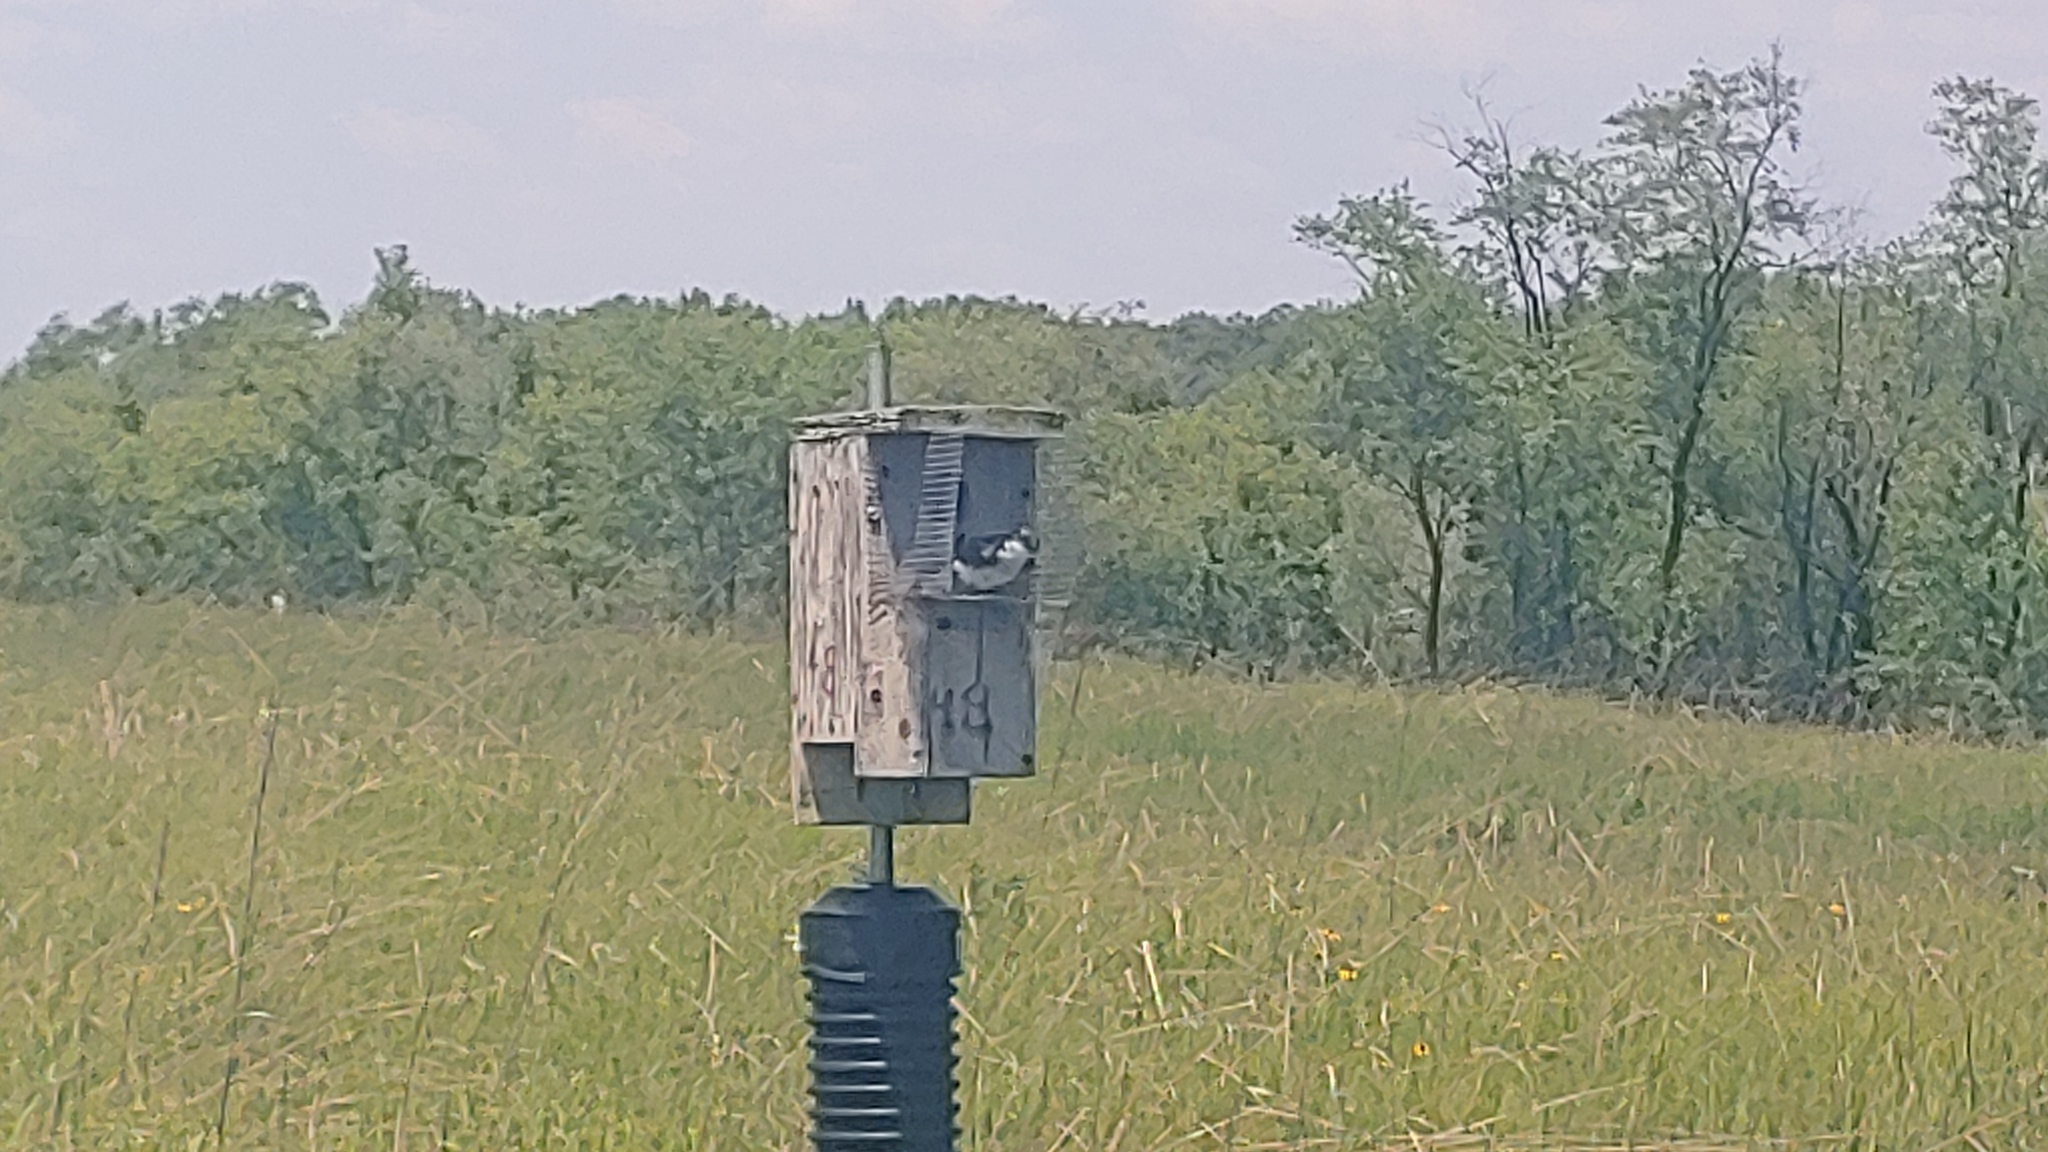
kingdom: Animalia
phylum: Chordata
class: Aves
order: Passeriformes
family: Hirundinidae
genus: Tachycineta
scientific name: Tachycineta bicolor
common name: Tree swallow
